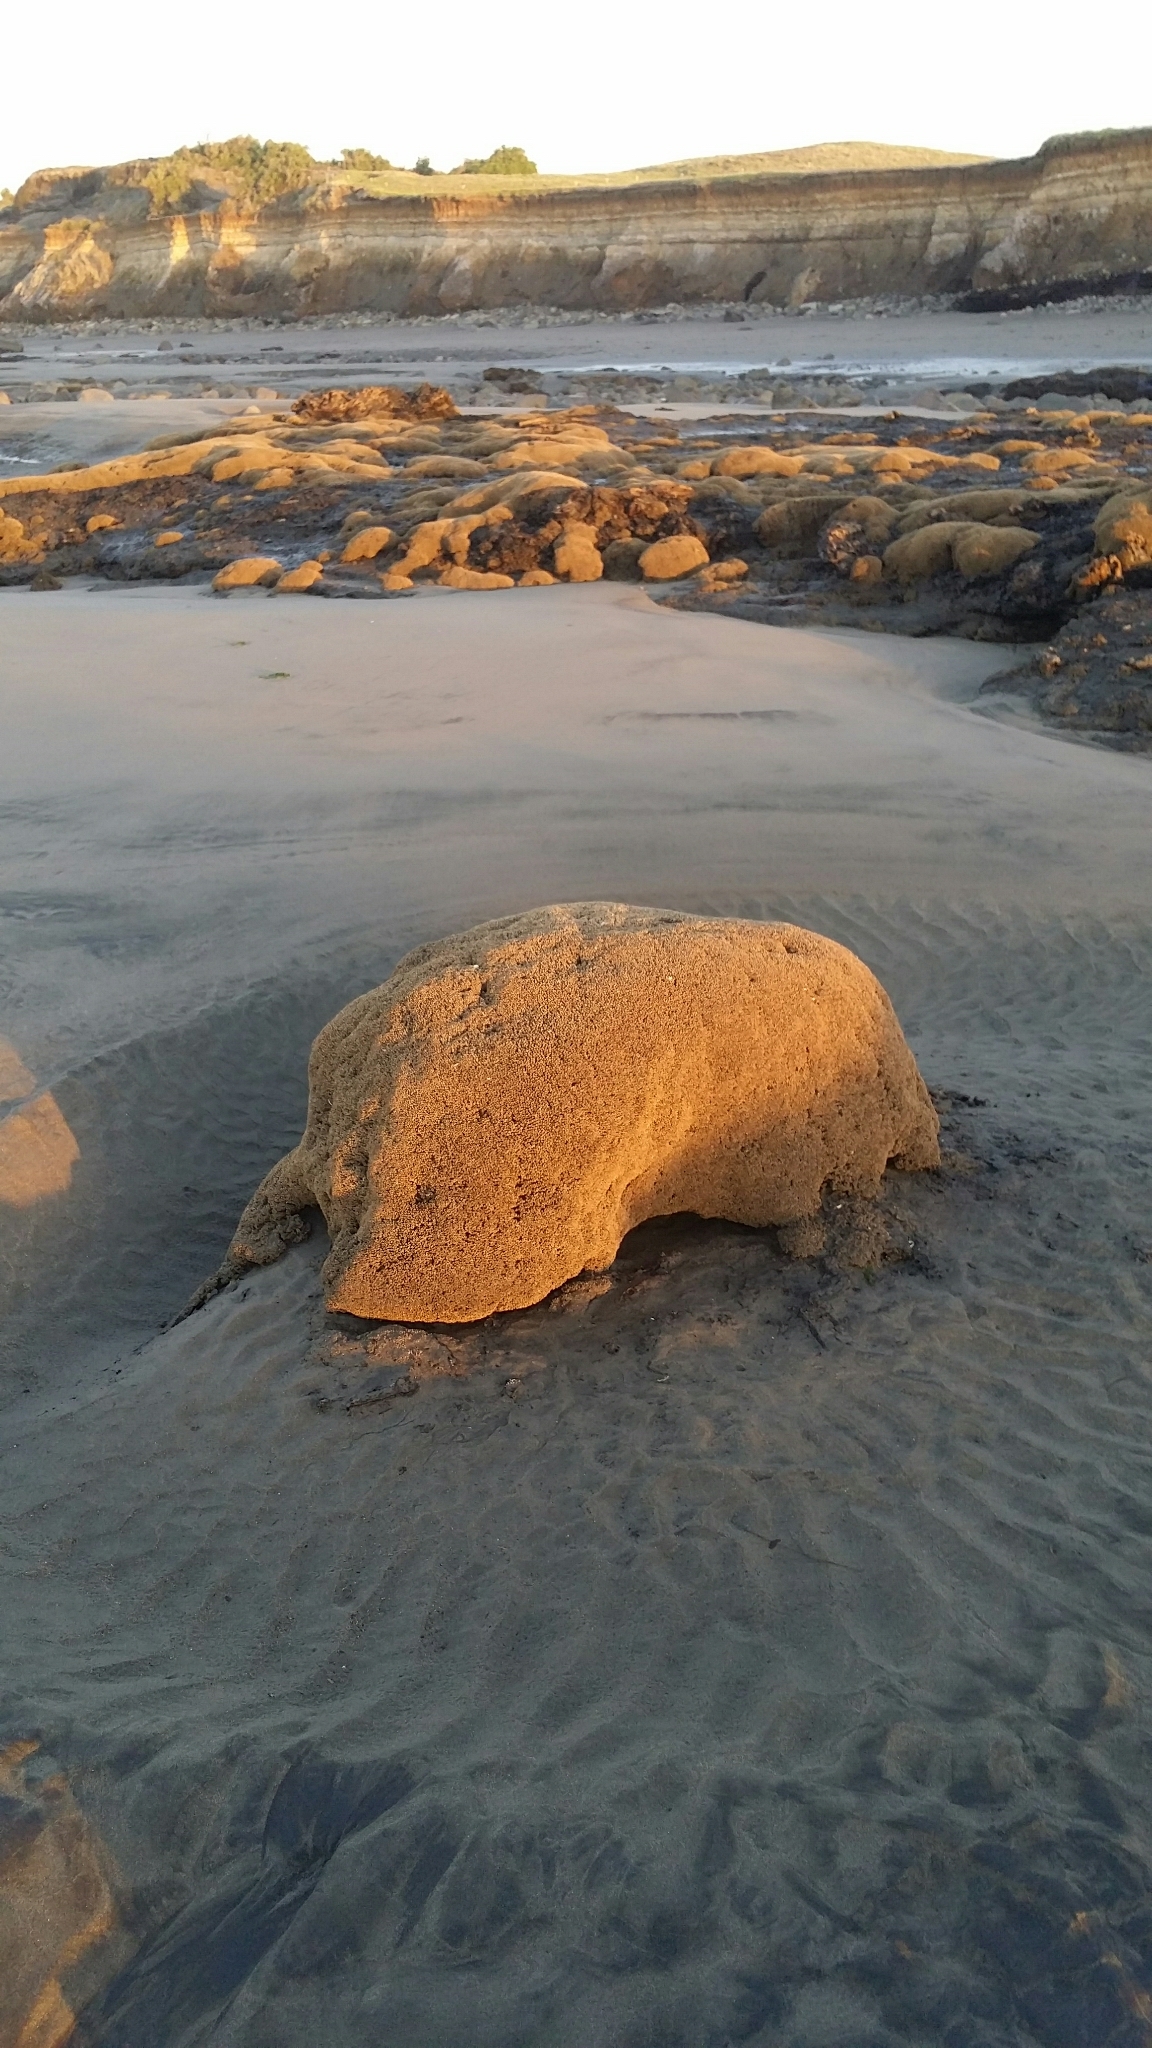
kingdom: Animalia
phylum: Annelida
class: Polychaeta
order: Sabellida
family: Sabellariidae
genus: Neosabellaria
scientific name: Neosabellaria kaiparaensis
